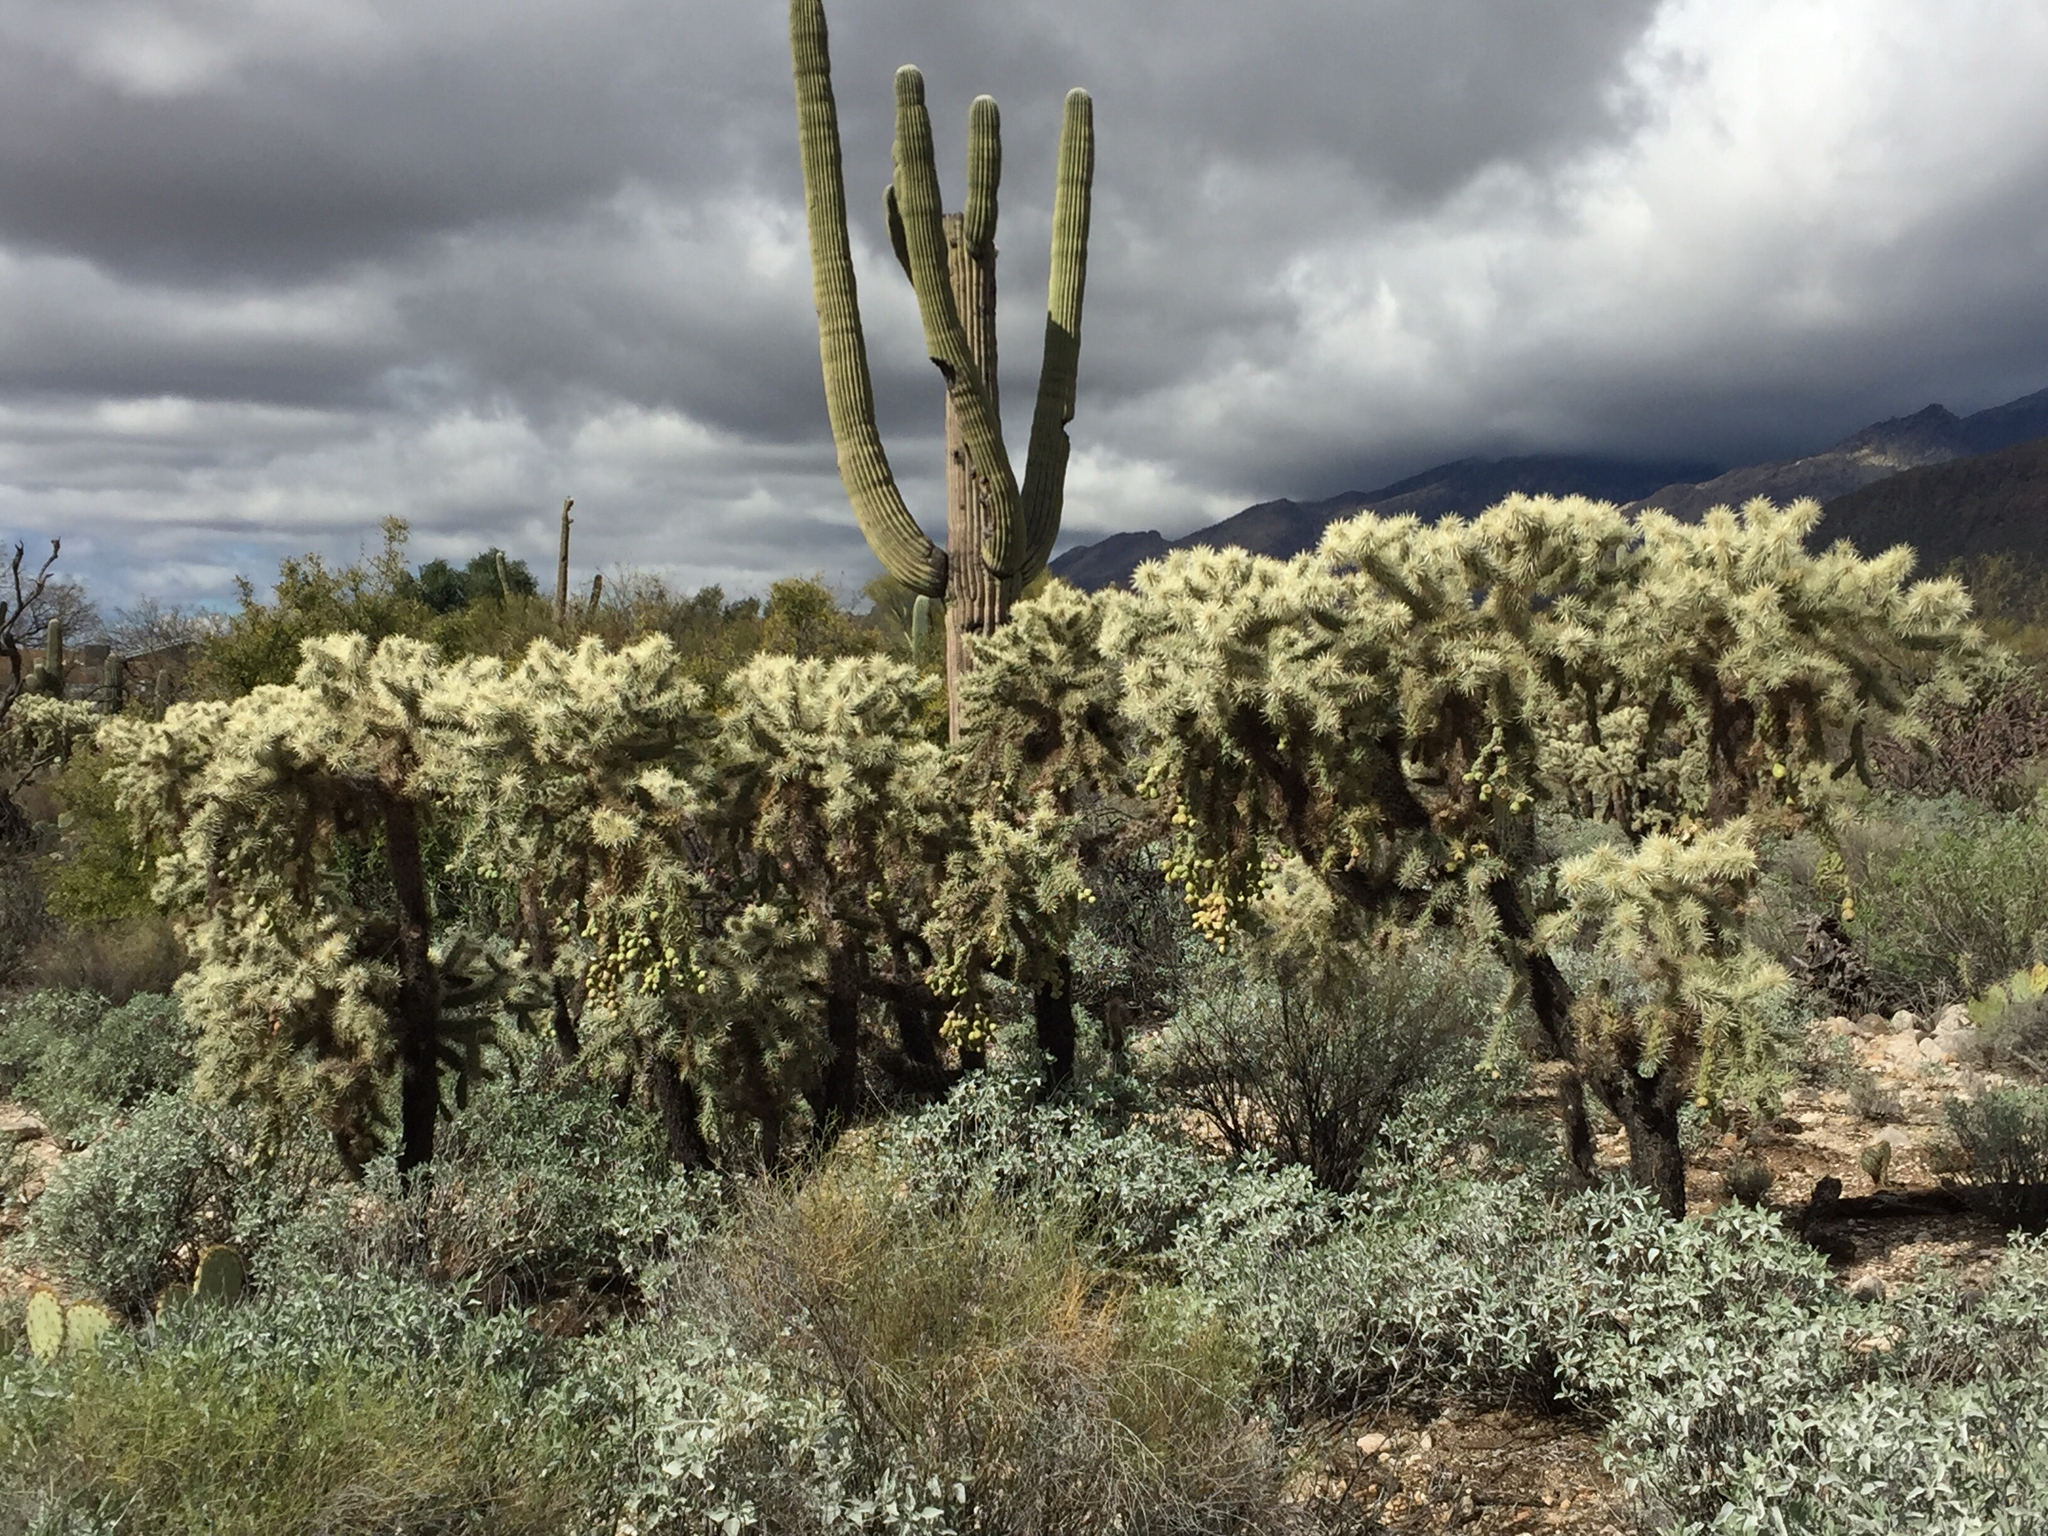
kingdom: Plantae
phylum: Tracheophyta
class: Magnoliopsida
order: Caryophyllales
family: Cactaceae
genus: Cylindropuntia
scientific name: Cylindropuntia fulgida
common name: Jumping cholla
